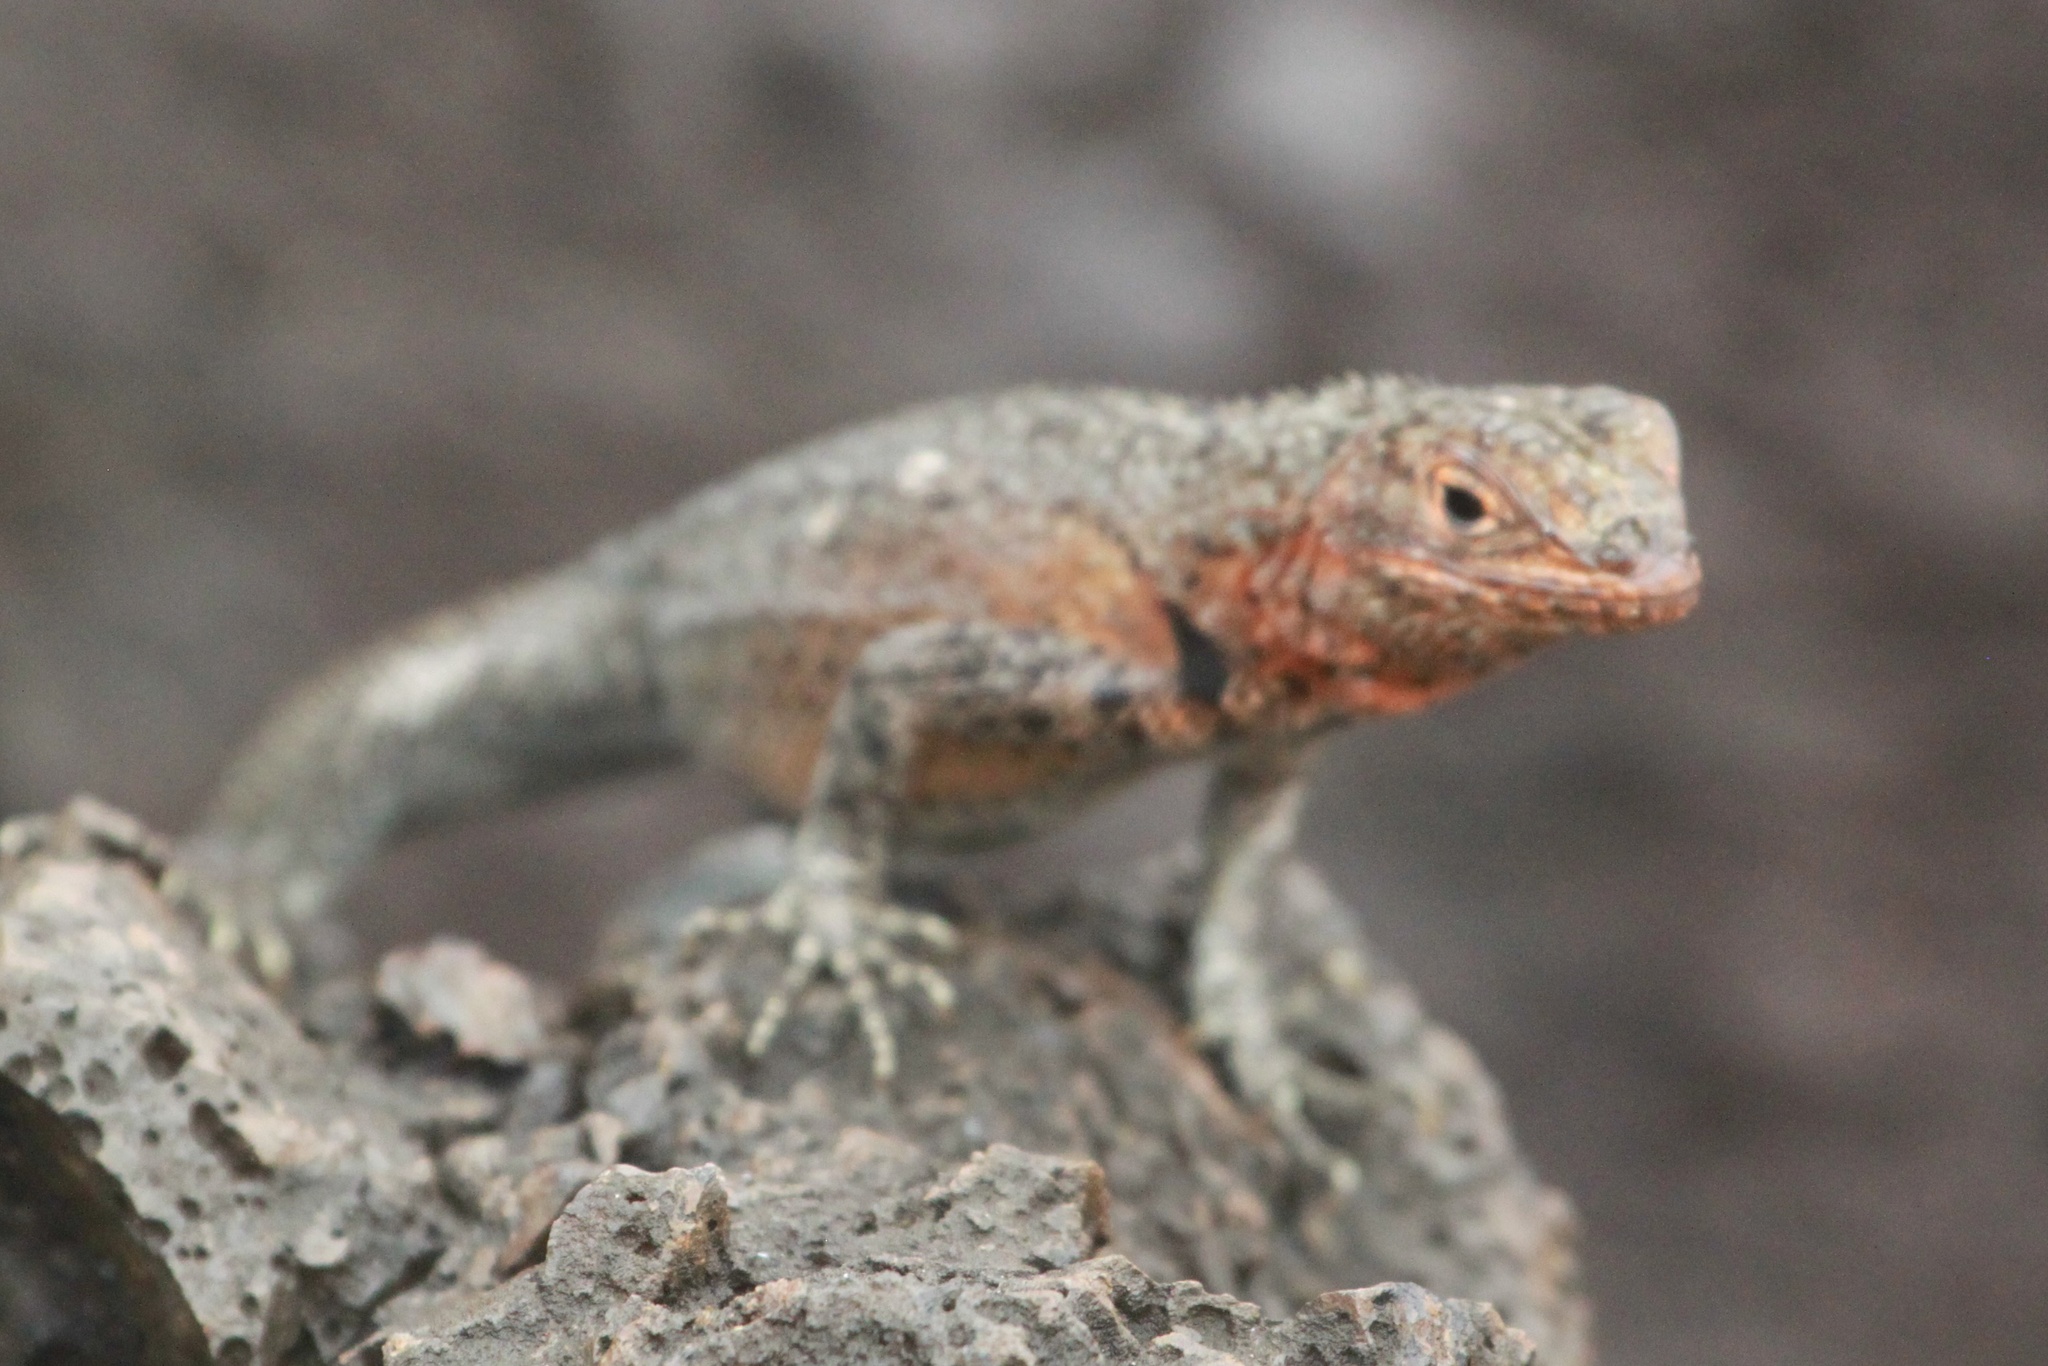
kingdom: Animalia
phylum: Chordata
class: Squamata
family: Tropiduridae
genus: Microlophus
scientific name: Microlophus albemarlensis
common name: Galapagos lava lizard
